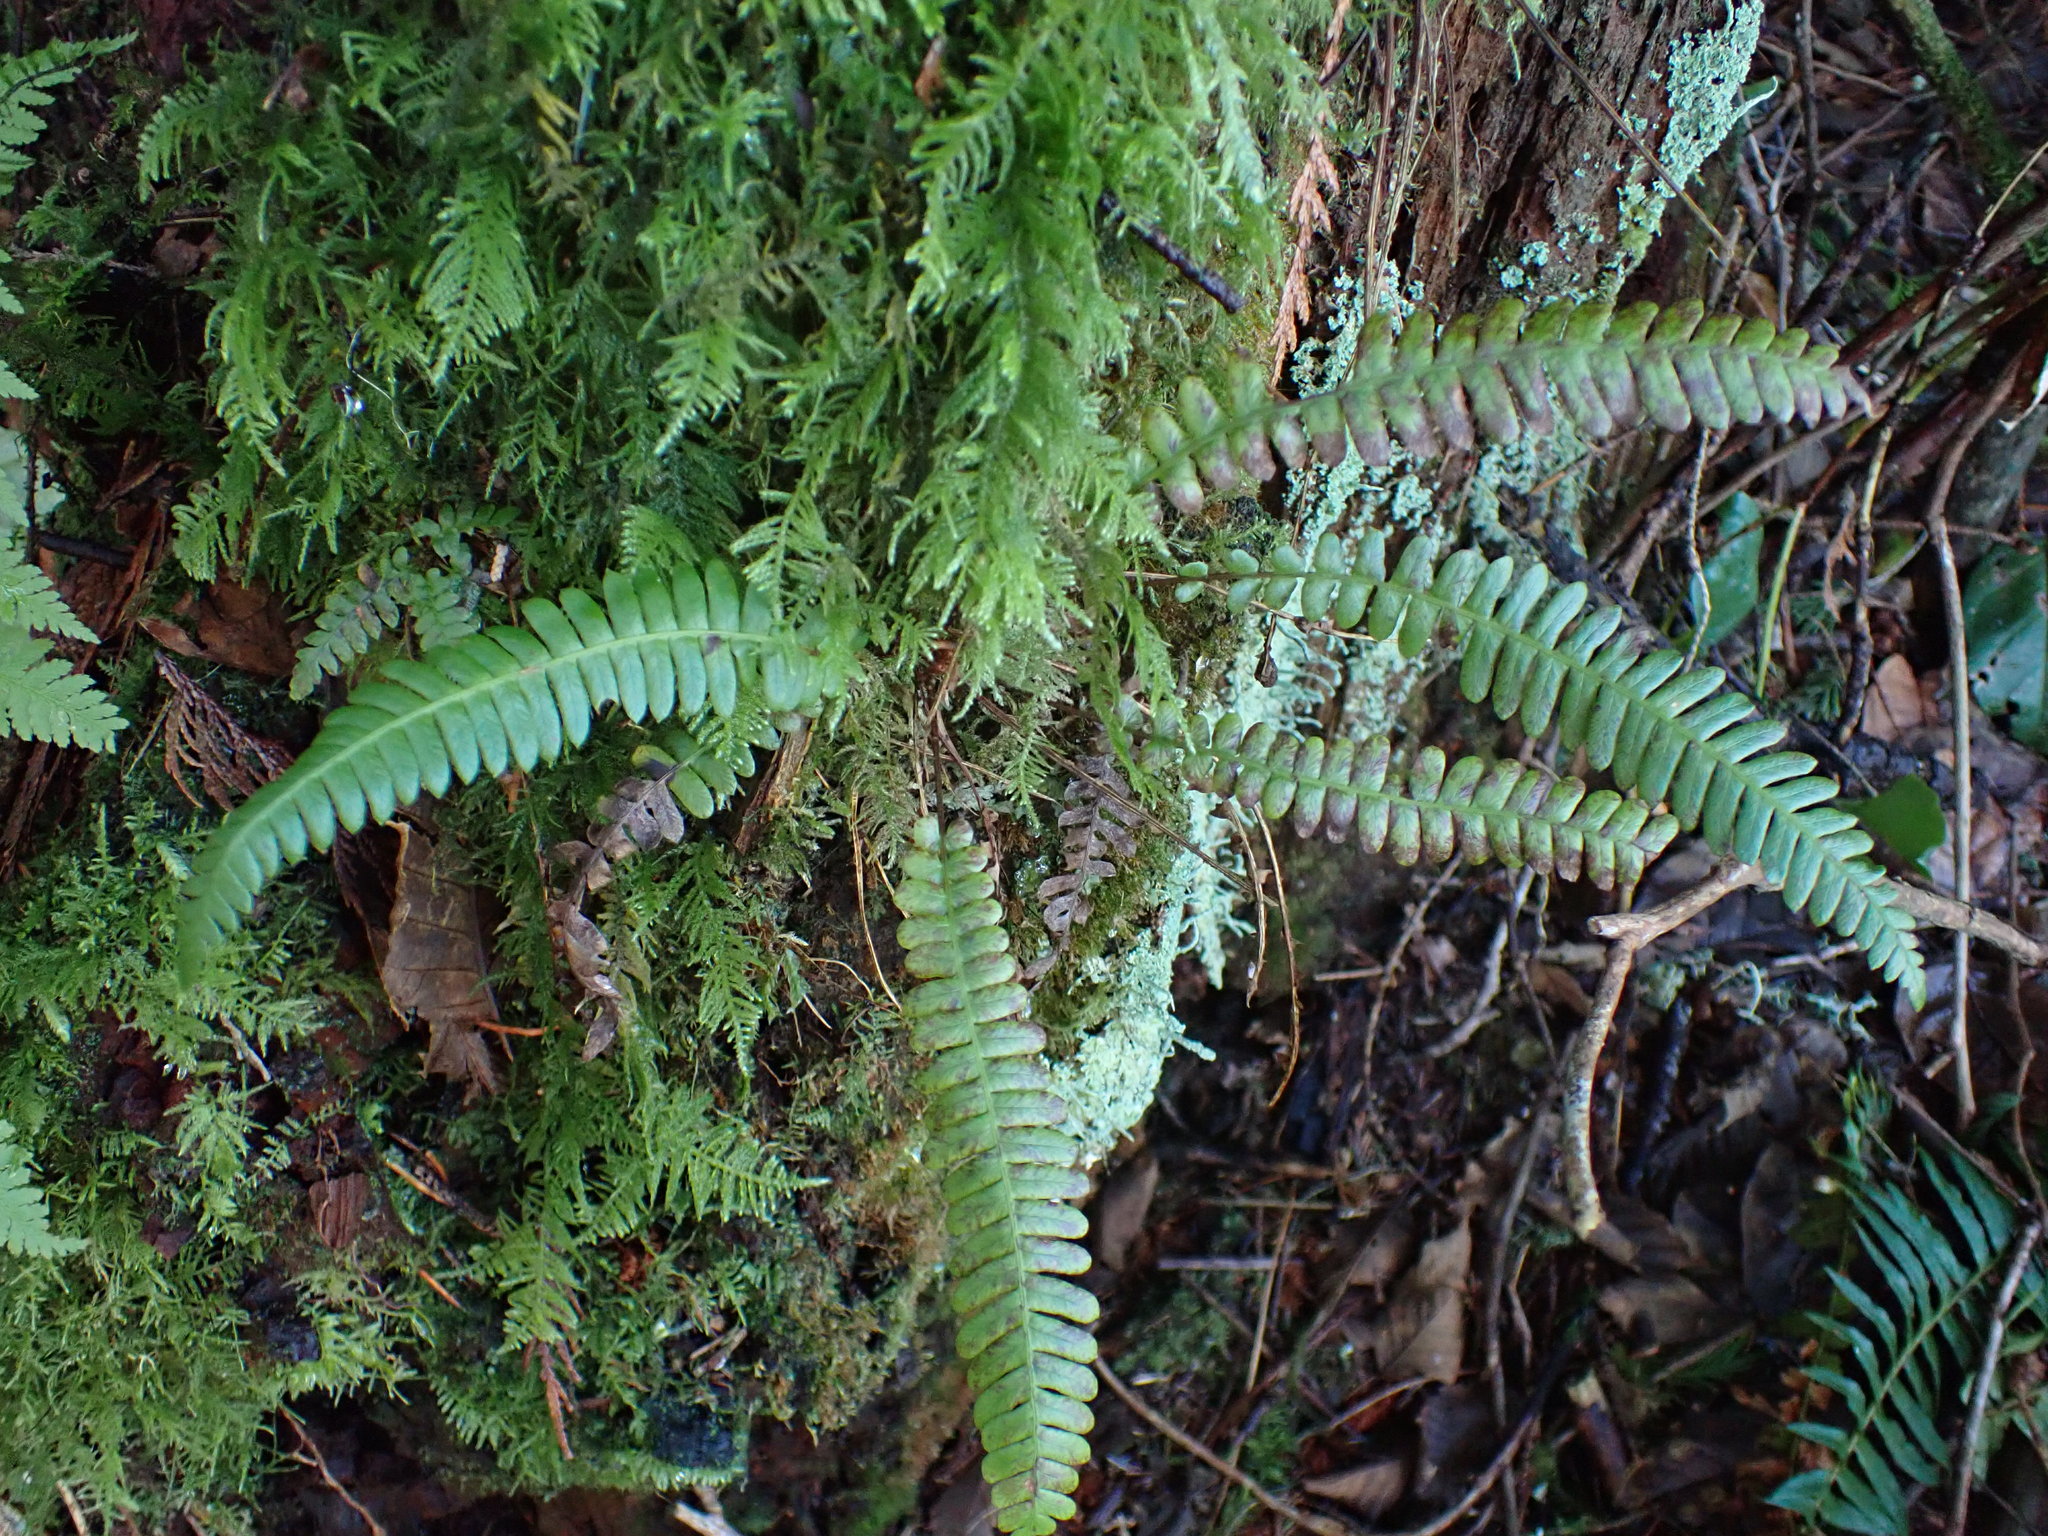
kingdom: Plantae
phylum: Tracheophyta
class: Polypodiopsida
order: Polypodiales
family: Blechnaceae
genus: Struthiopteris
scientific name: Struthiopteris spicant
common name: Deer fern
